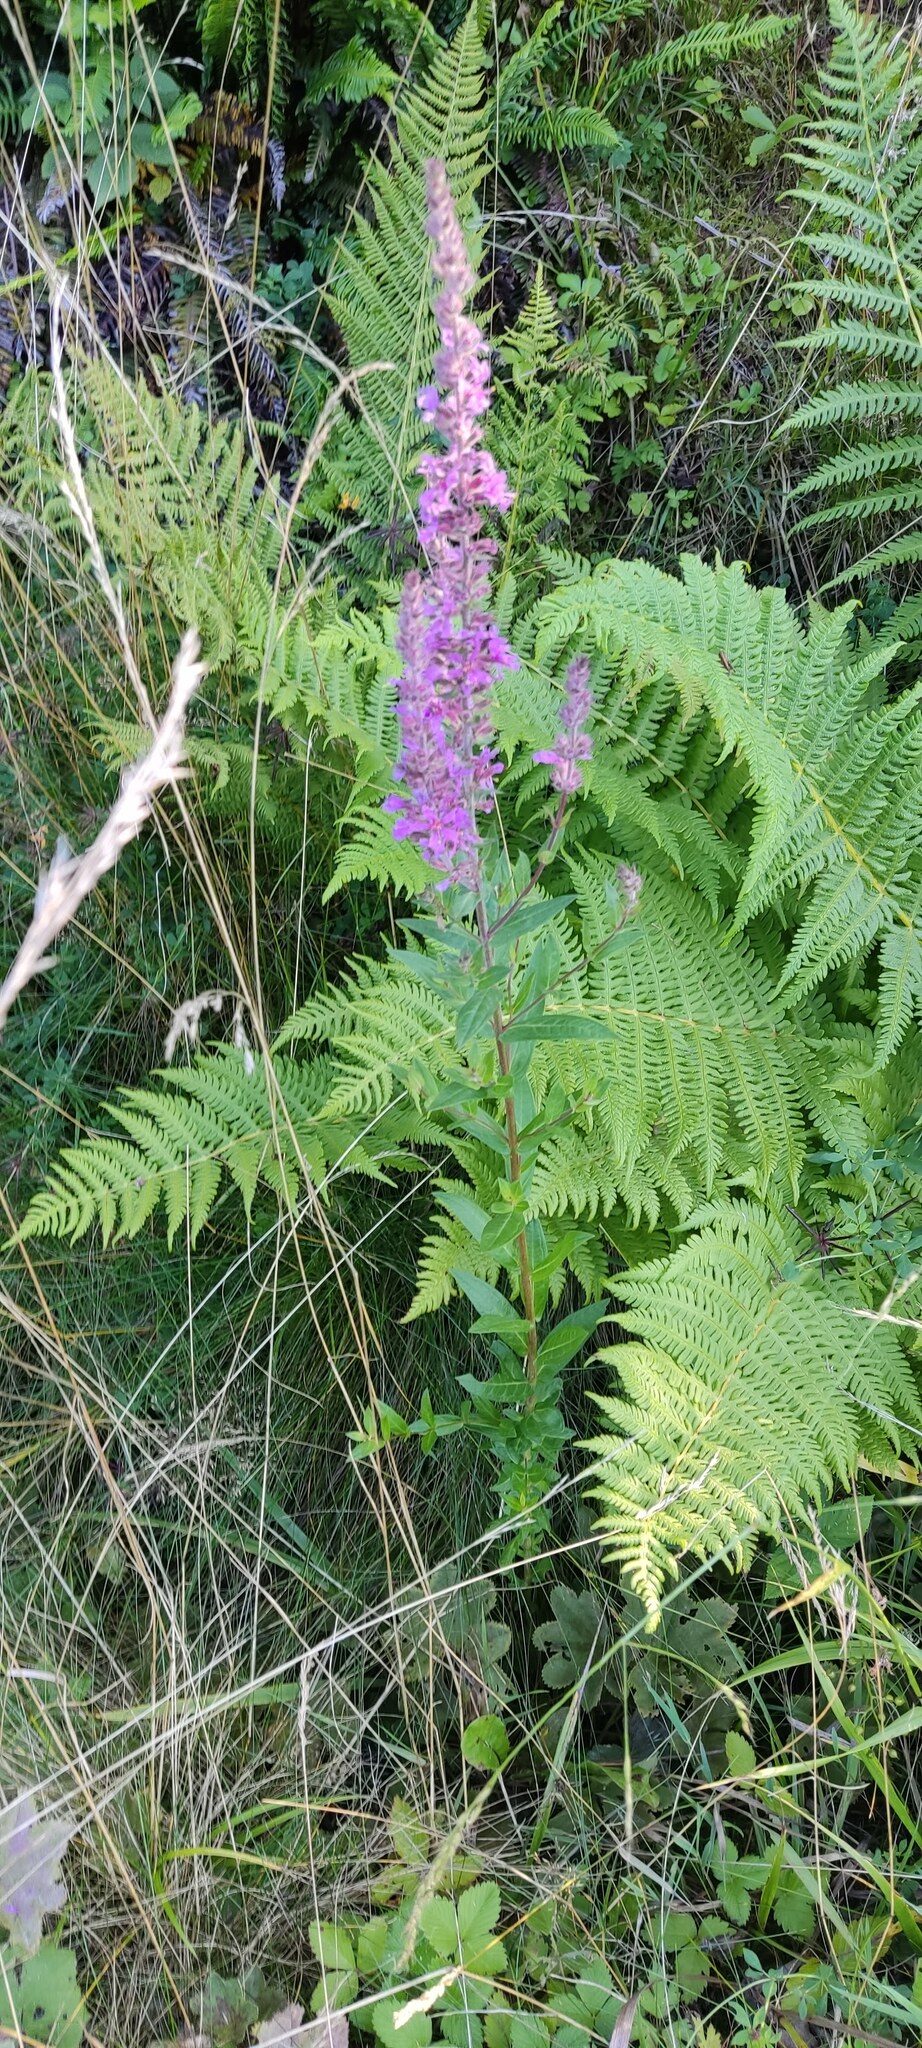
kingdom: Plantae
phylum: Tracheophyta
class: Magnoliopsida
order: Myrtales
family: Lythraceae
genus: Lythrum
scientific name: Lythrum salicaria
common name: Purple loosestrife
